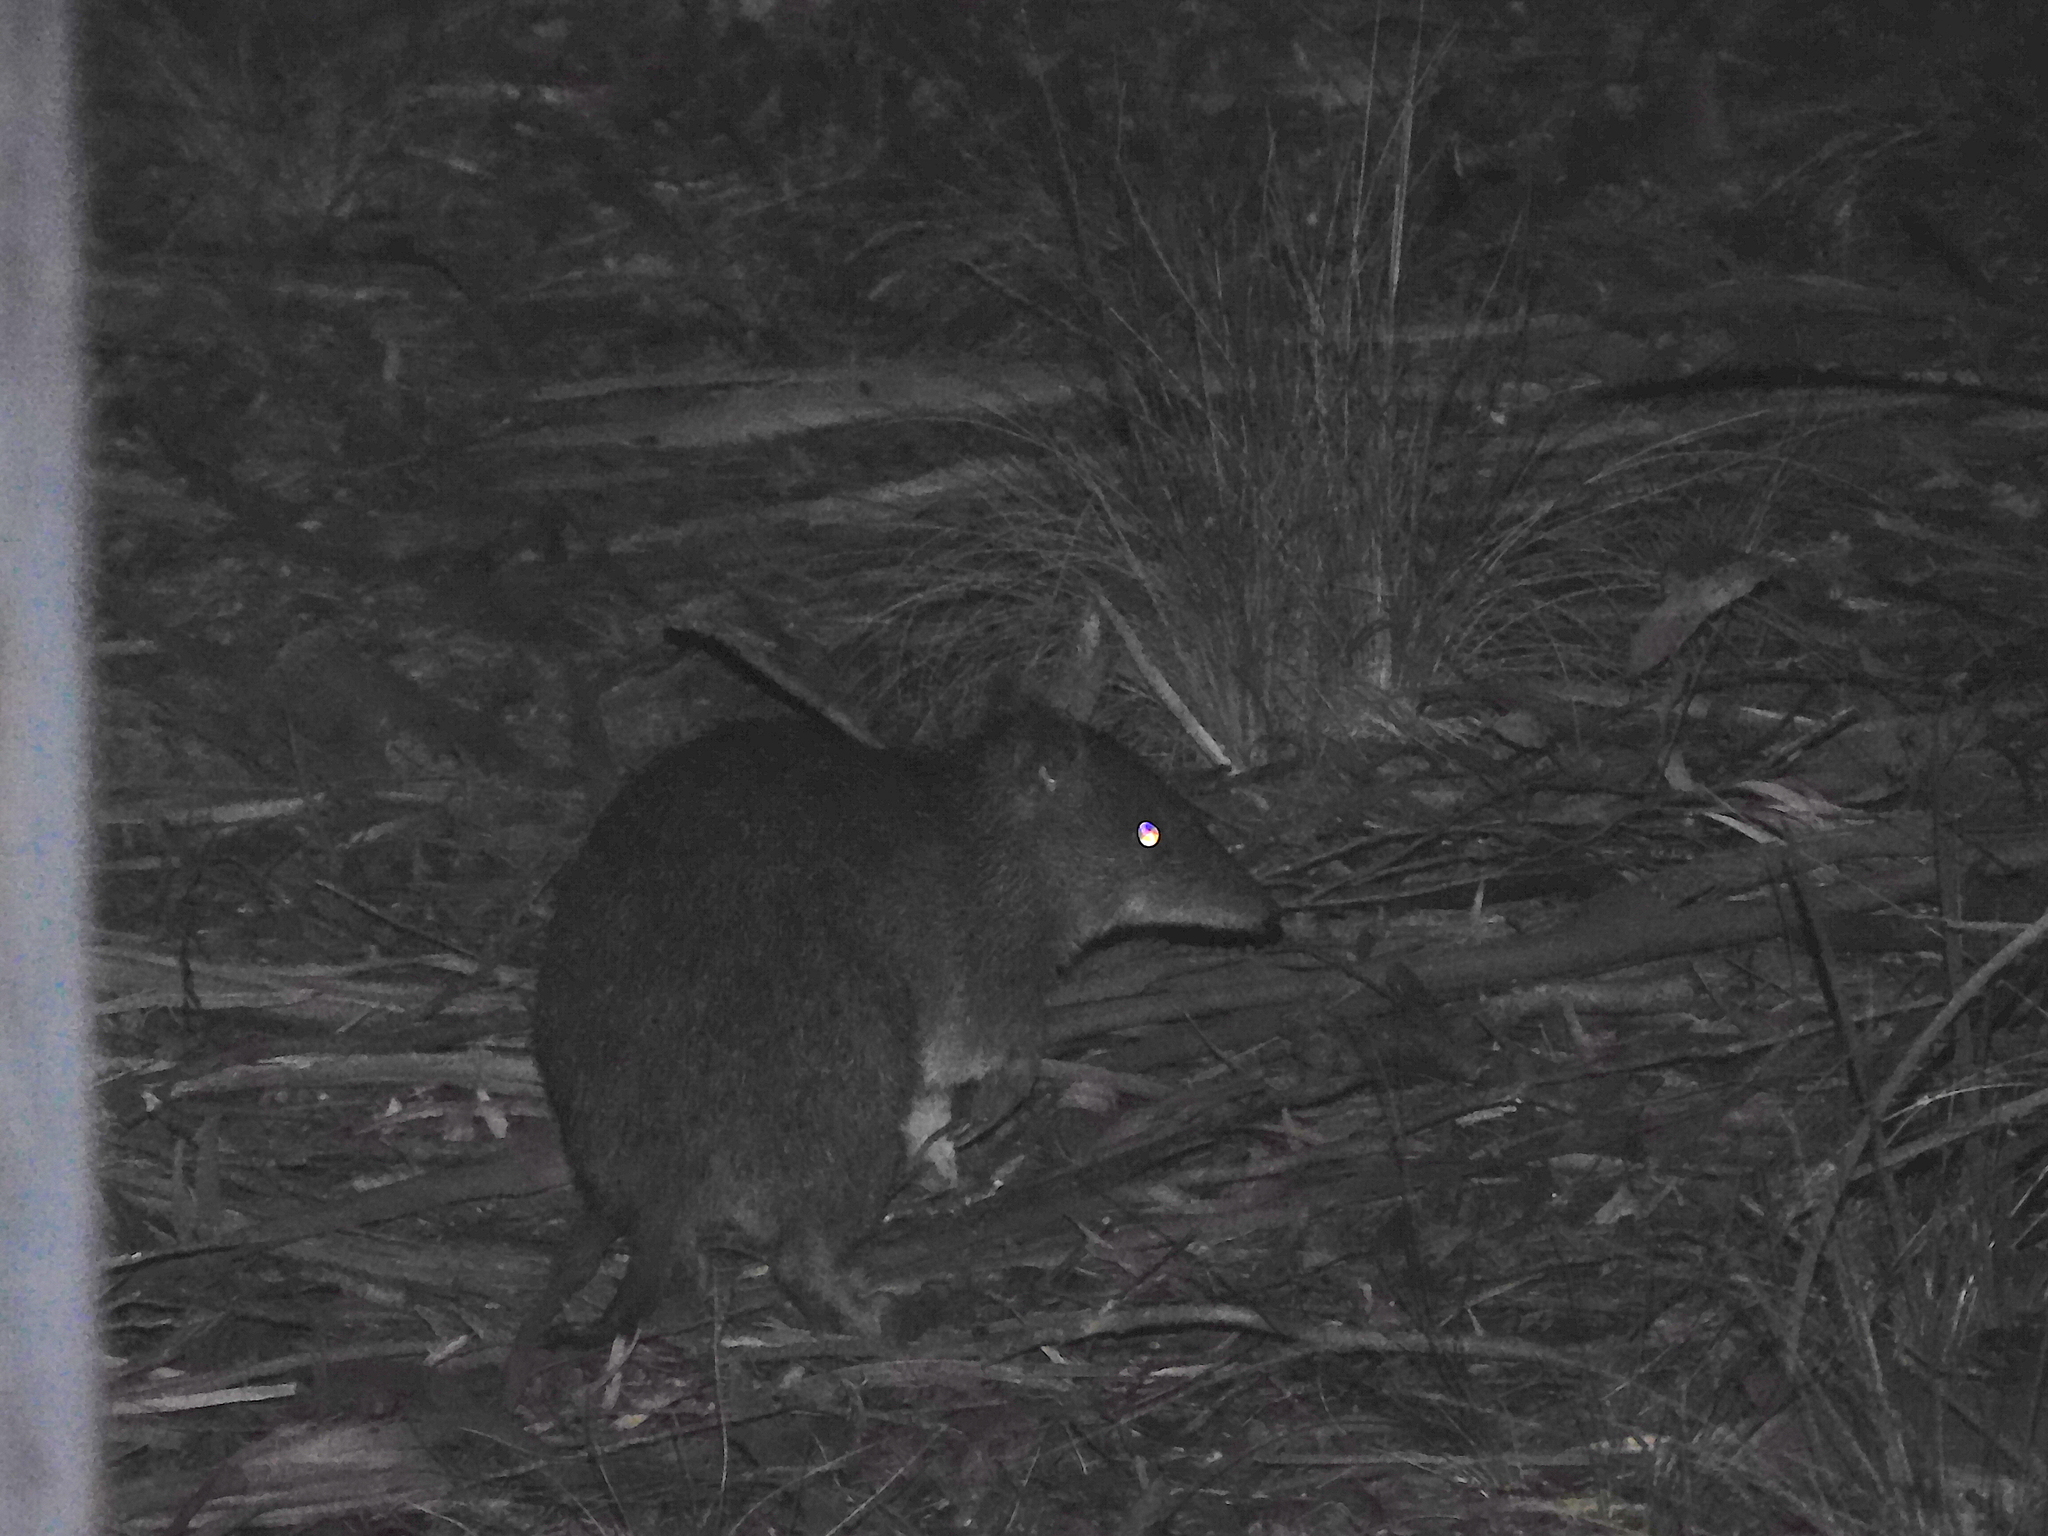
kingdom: Animalia
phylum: Chordata
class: Mammalia
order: Peramelemorphia
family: Peramelidae
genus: Isoodon
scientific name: Isoodon obesulus
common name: Southern brown bandicoot
